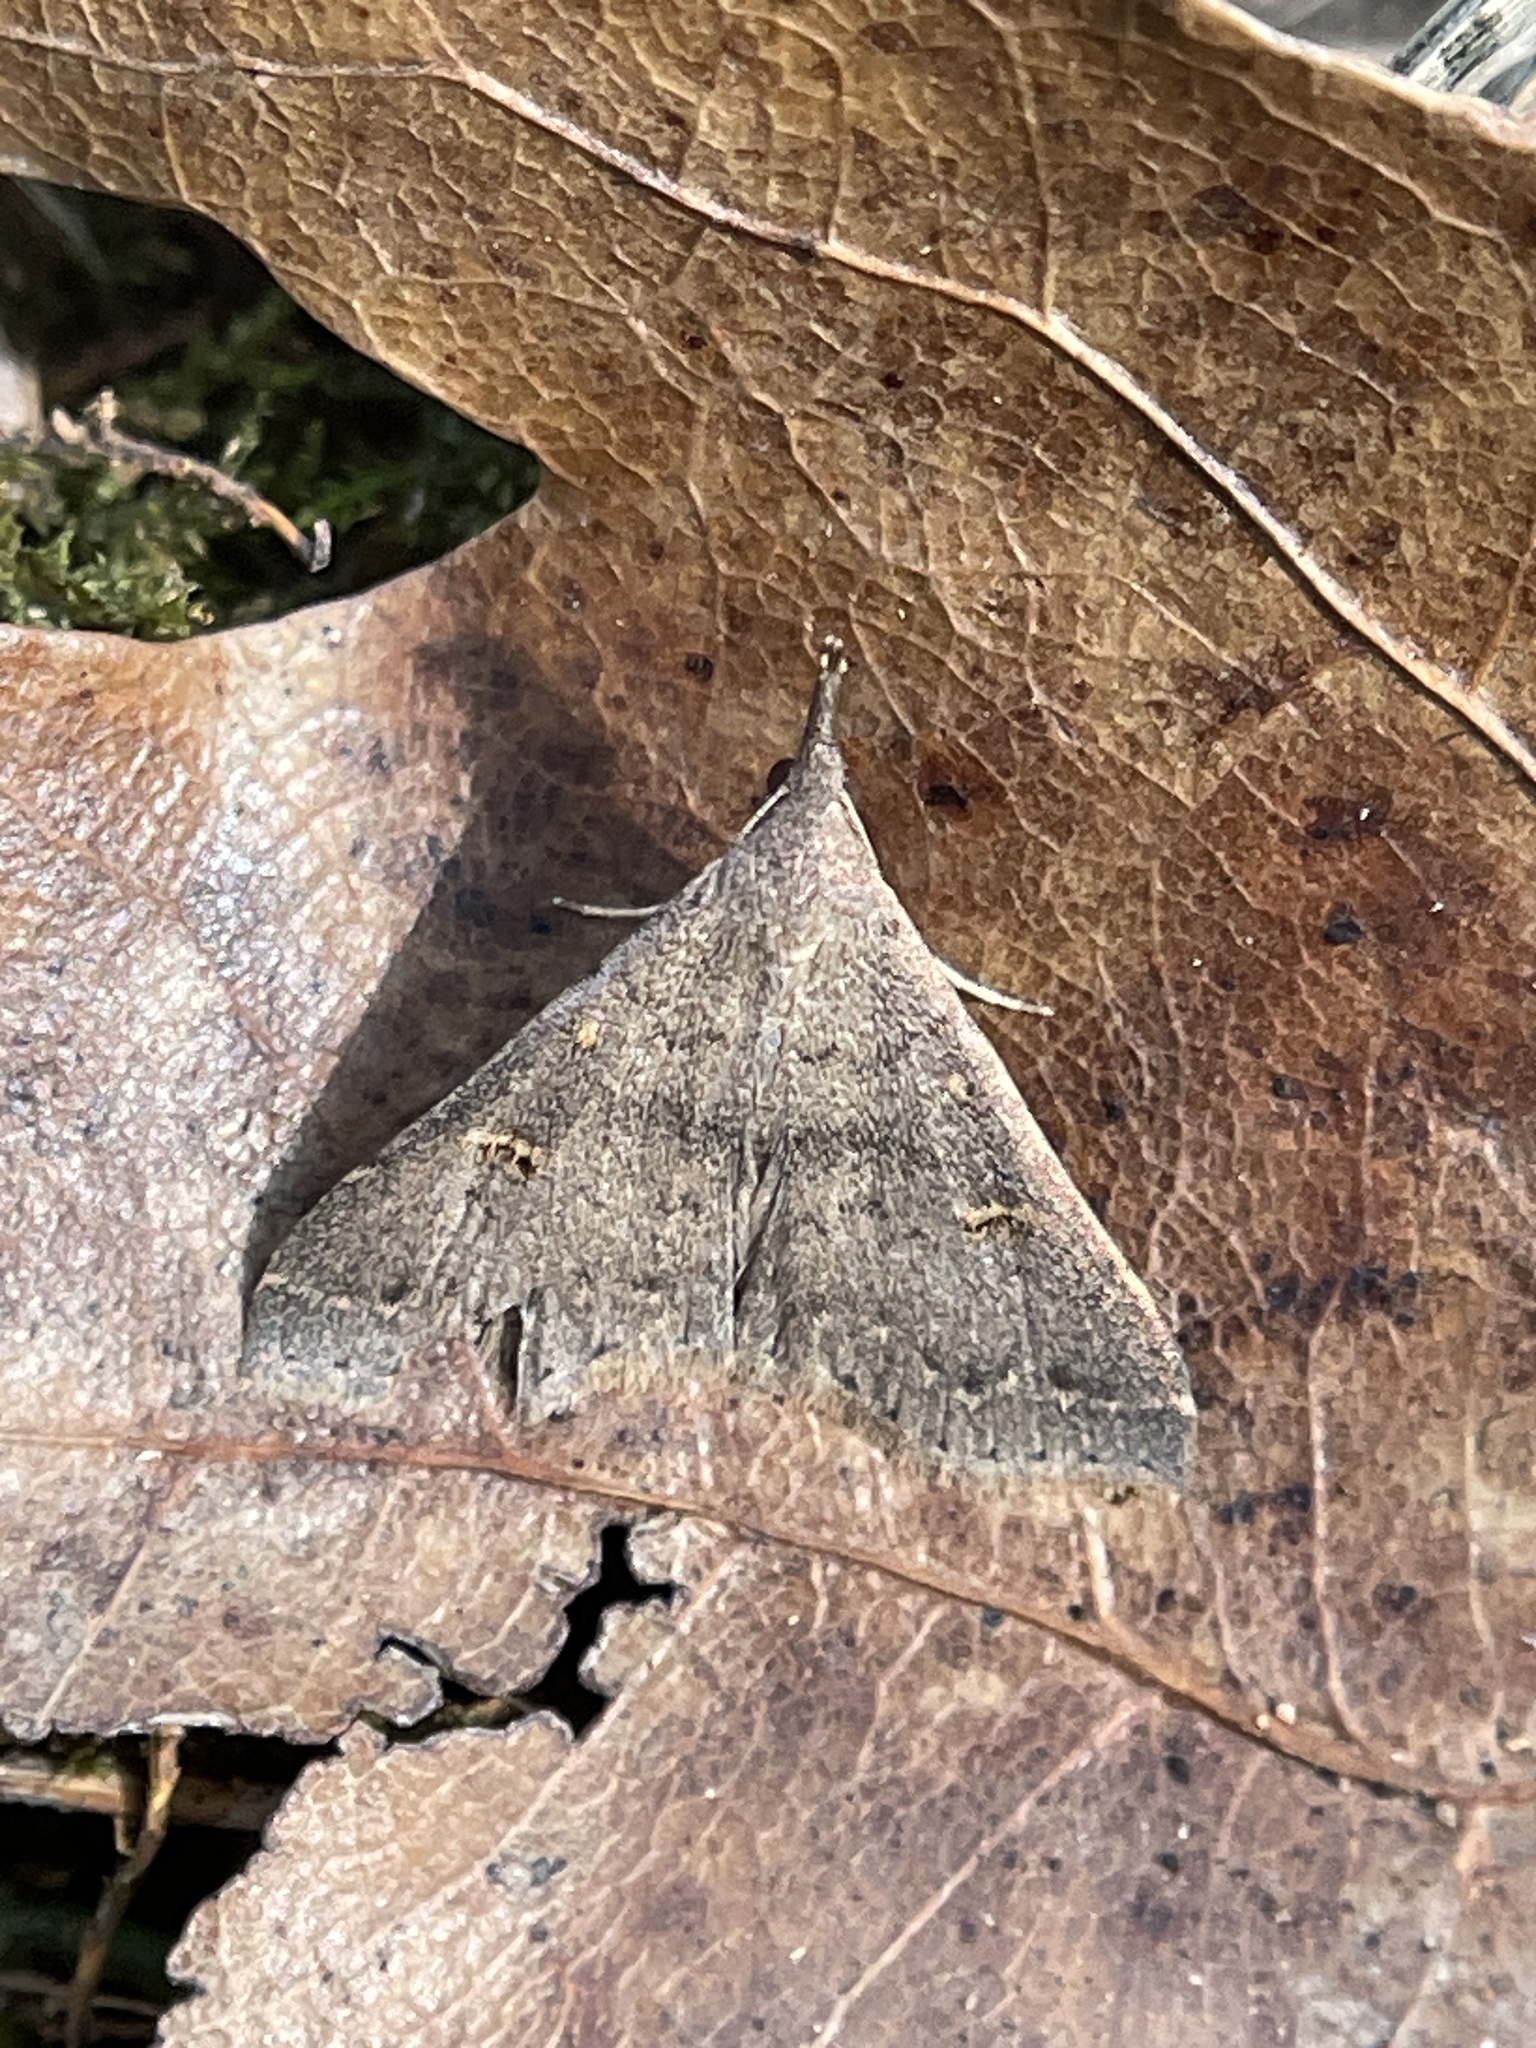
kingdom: Animalia
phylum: Arthropoda
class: Insecta
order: Lepidoptera
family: Erebidae
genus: Renia
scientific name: Renia adspergillus
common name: Speckled renia moth
